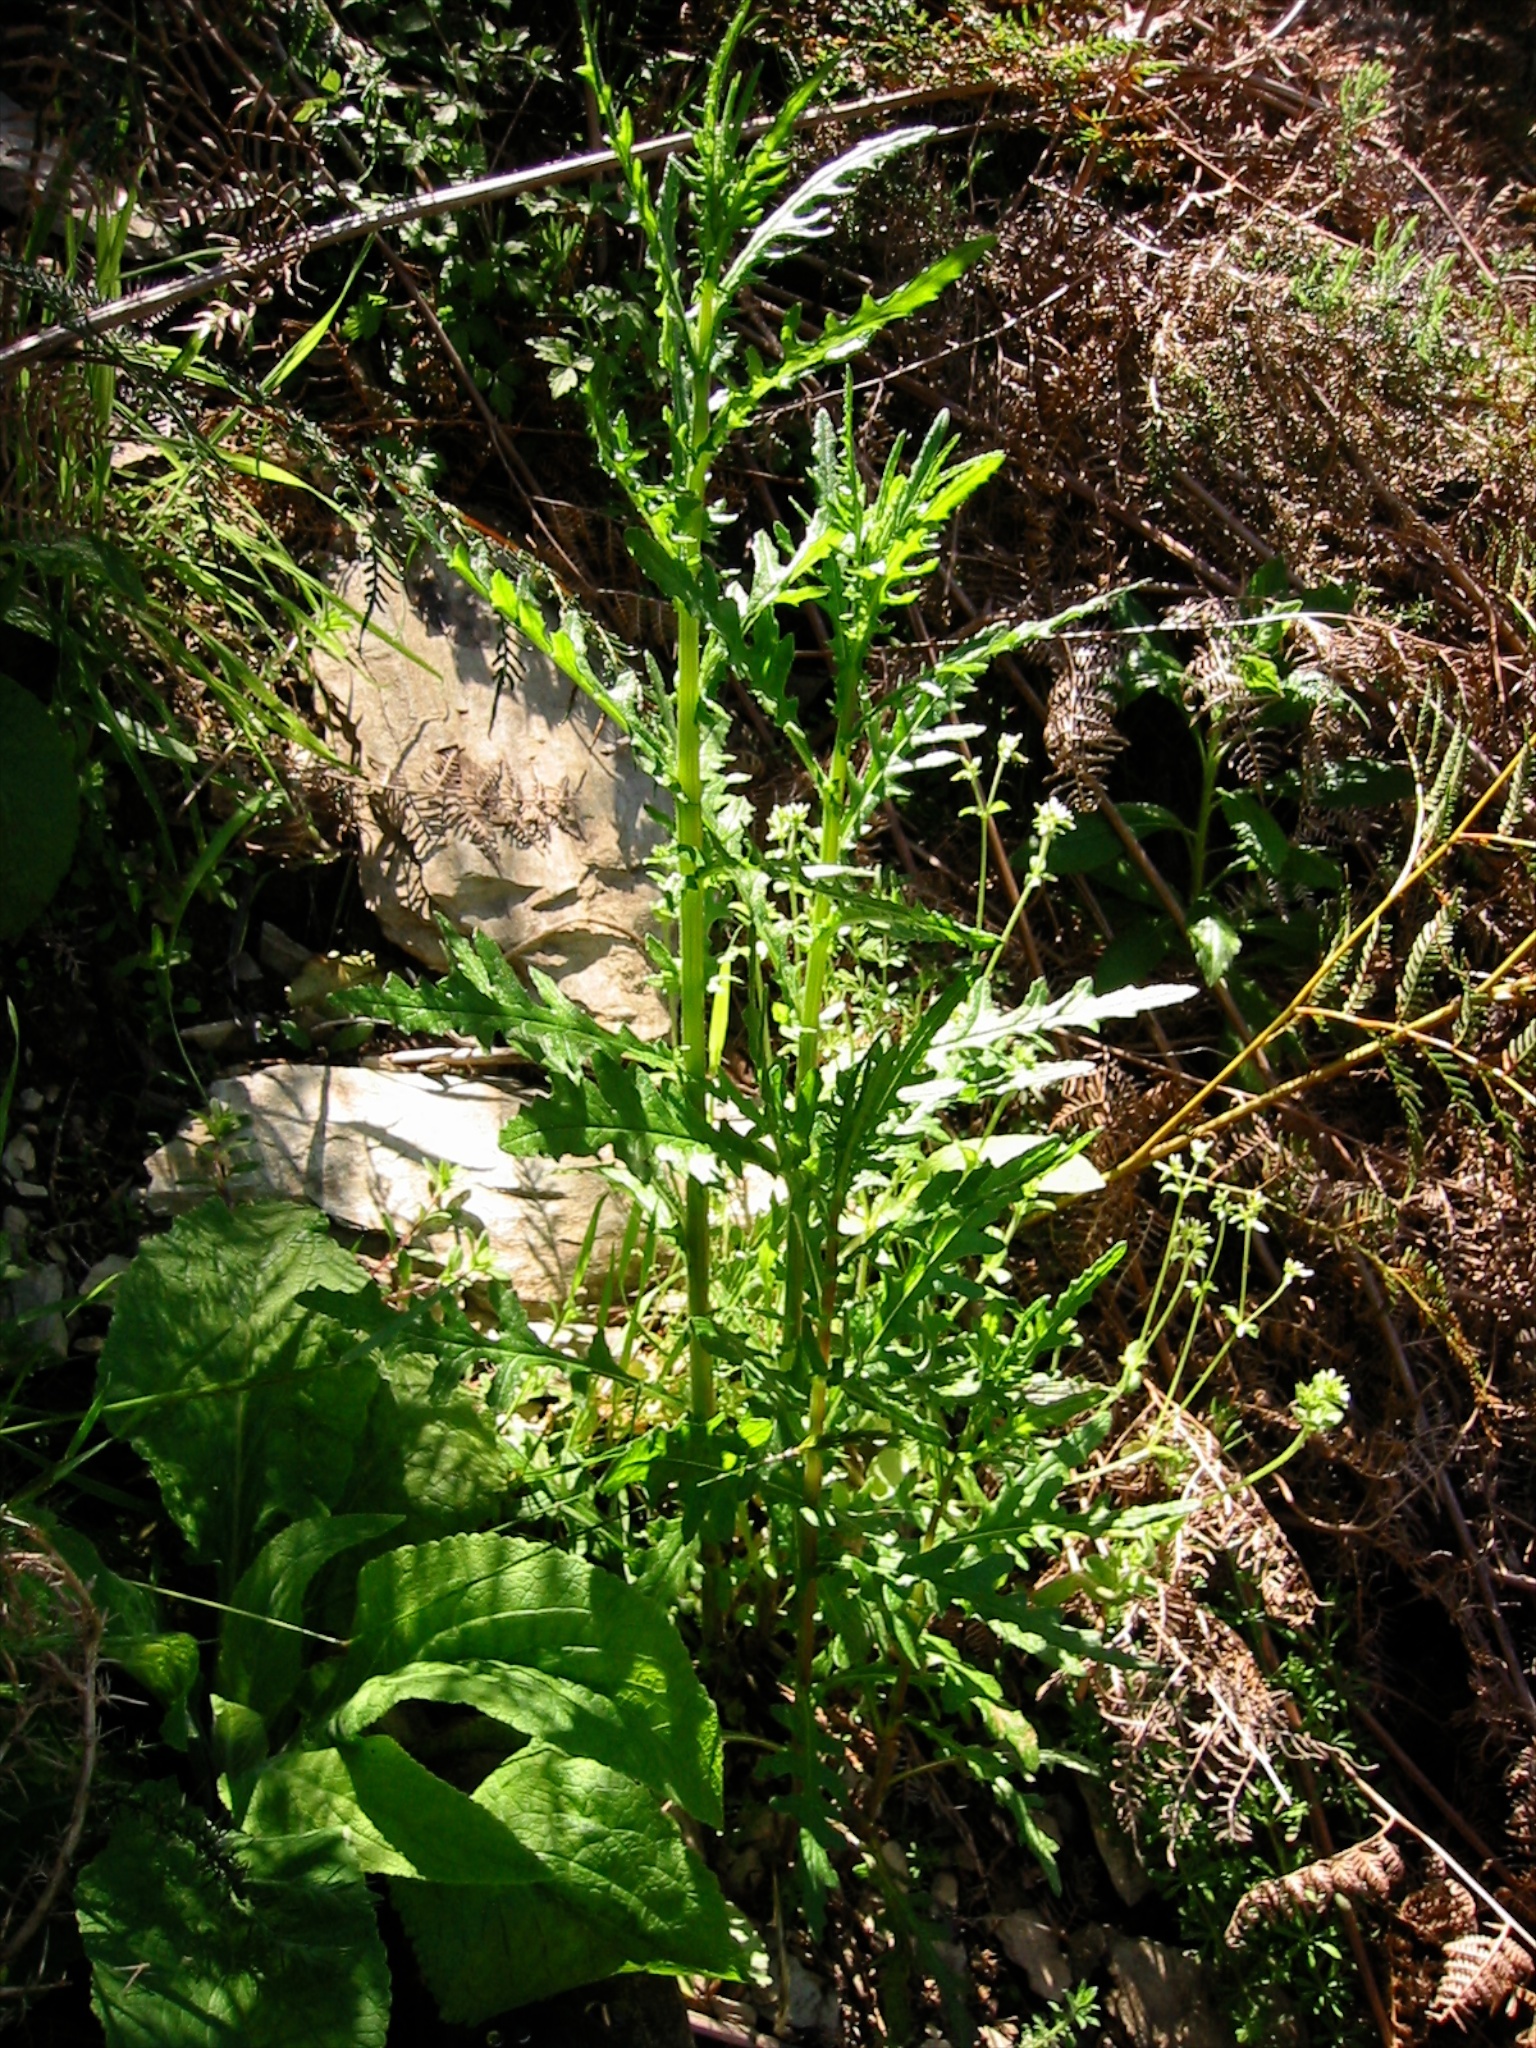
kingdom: Plantae
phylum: Tracheophyta
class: Magnoliopsida
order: Asterales
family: Asteraceae
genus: Senecio
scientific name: Senecio hispidulus
